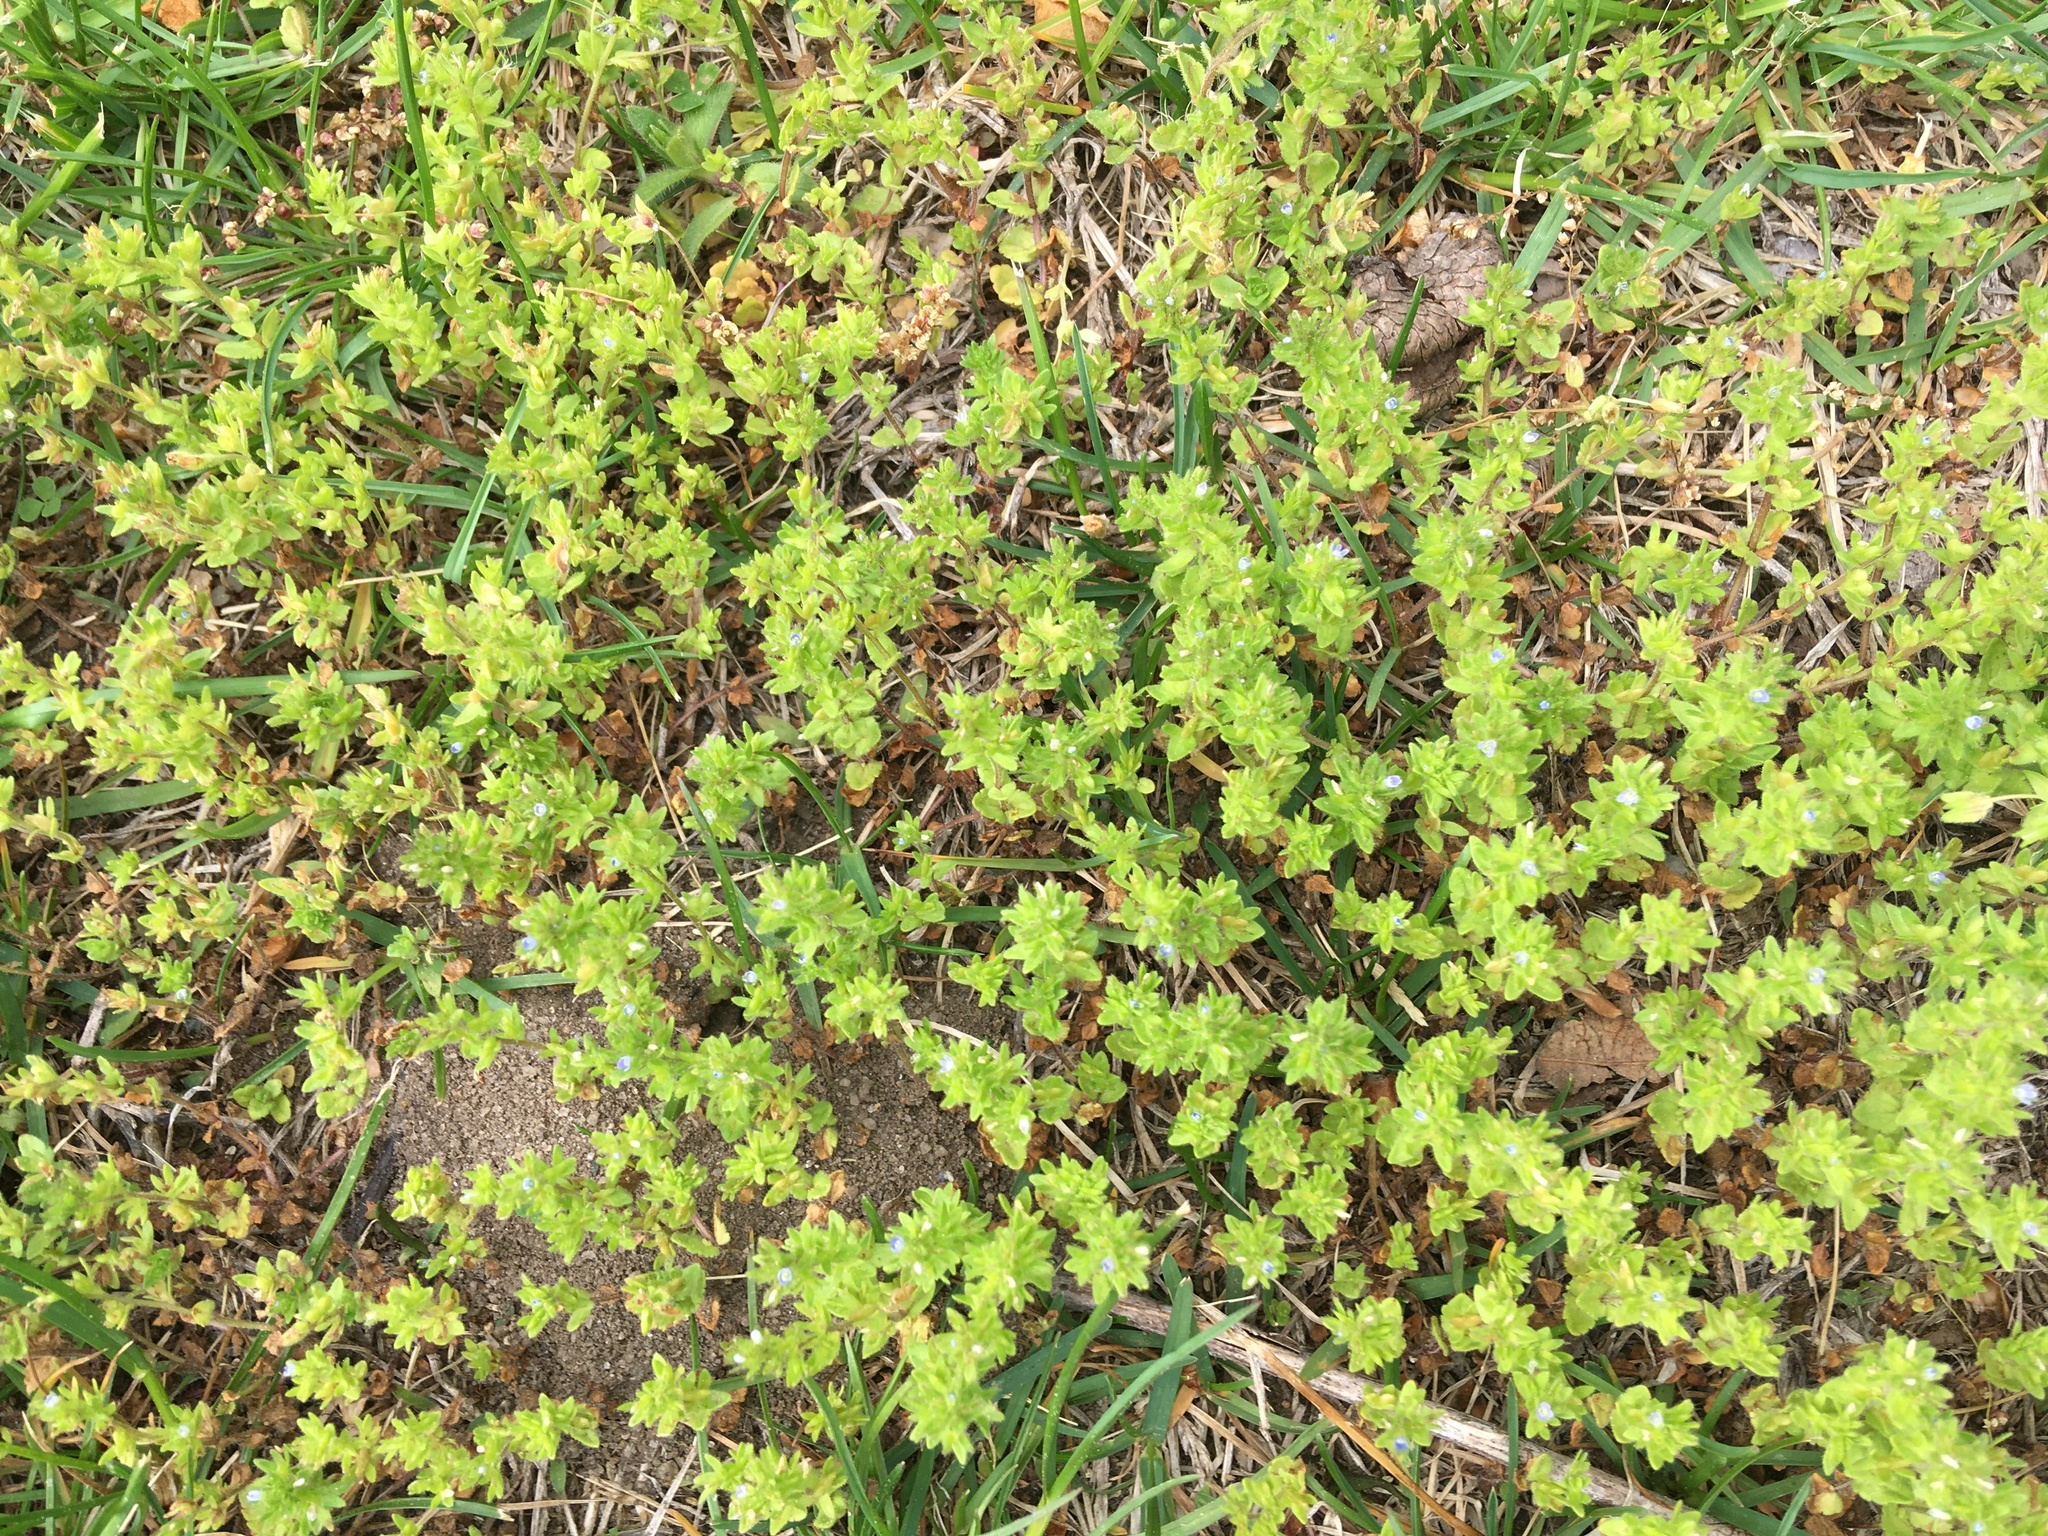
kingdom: Plantae
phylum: Tracheophyta
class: Magnoliopsida
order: Lamiales
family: Plantaginaceae
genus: Veronica
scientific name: Veronica arvensis
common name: Corn speedwell
